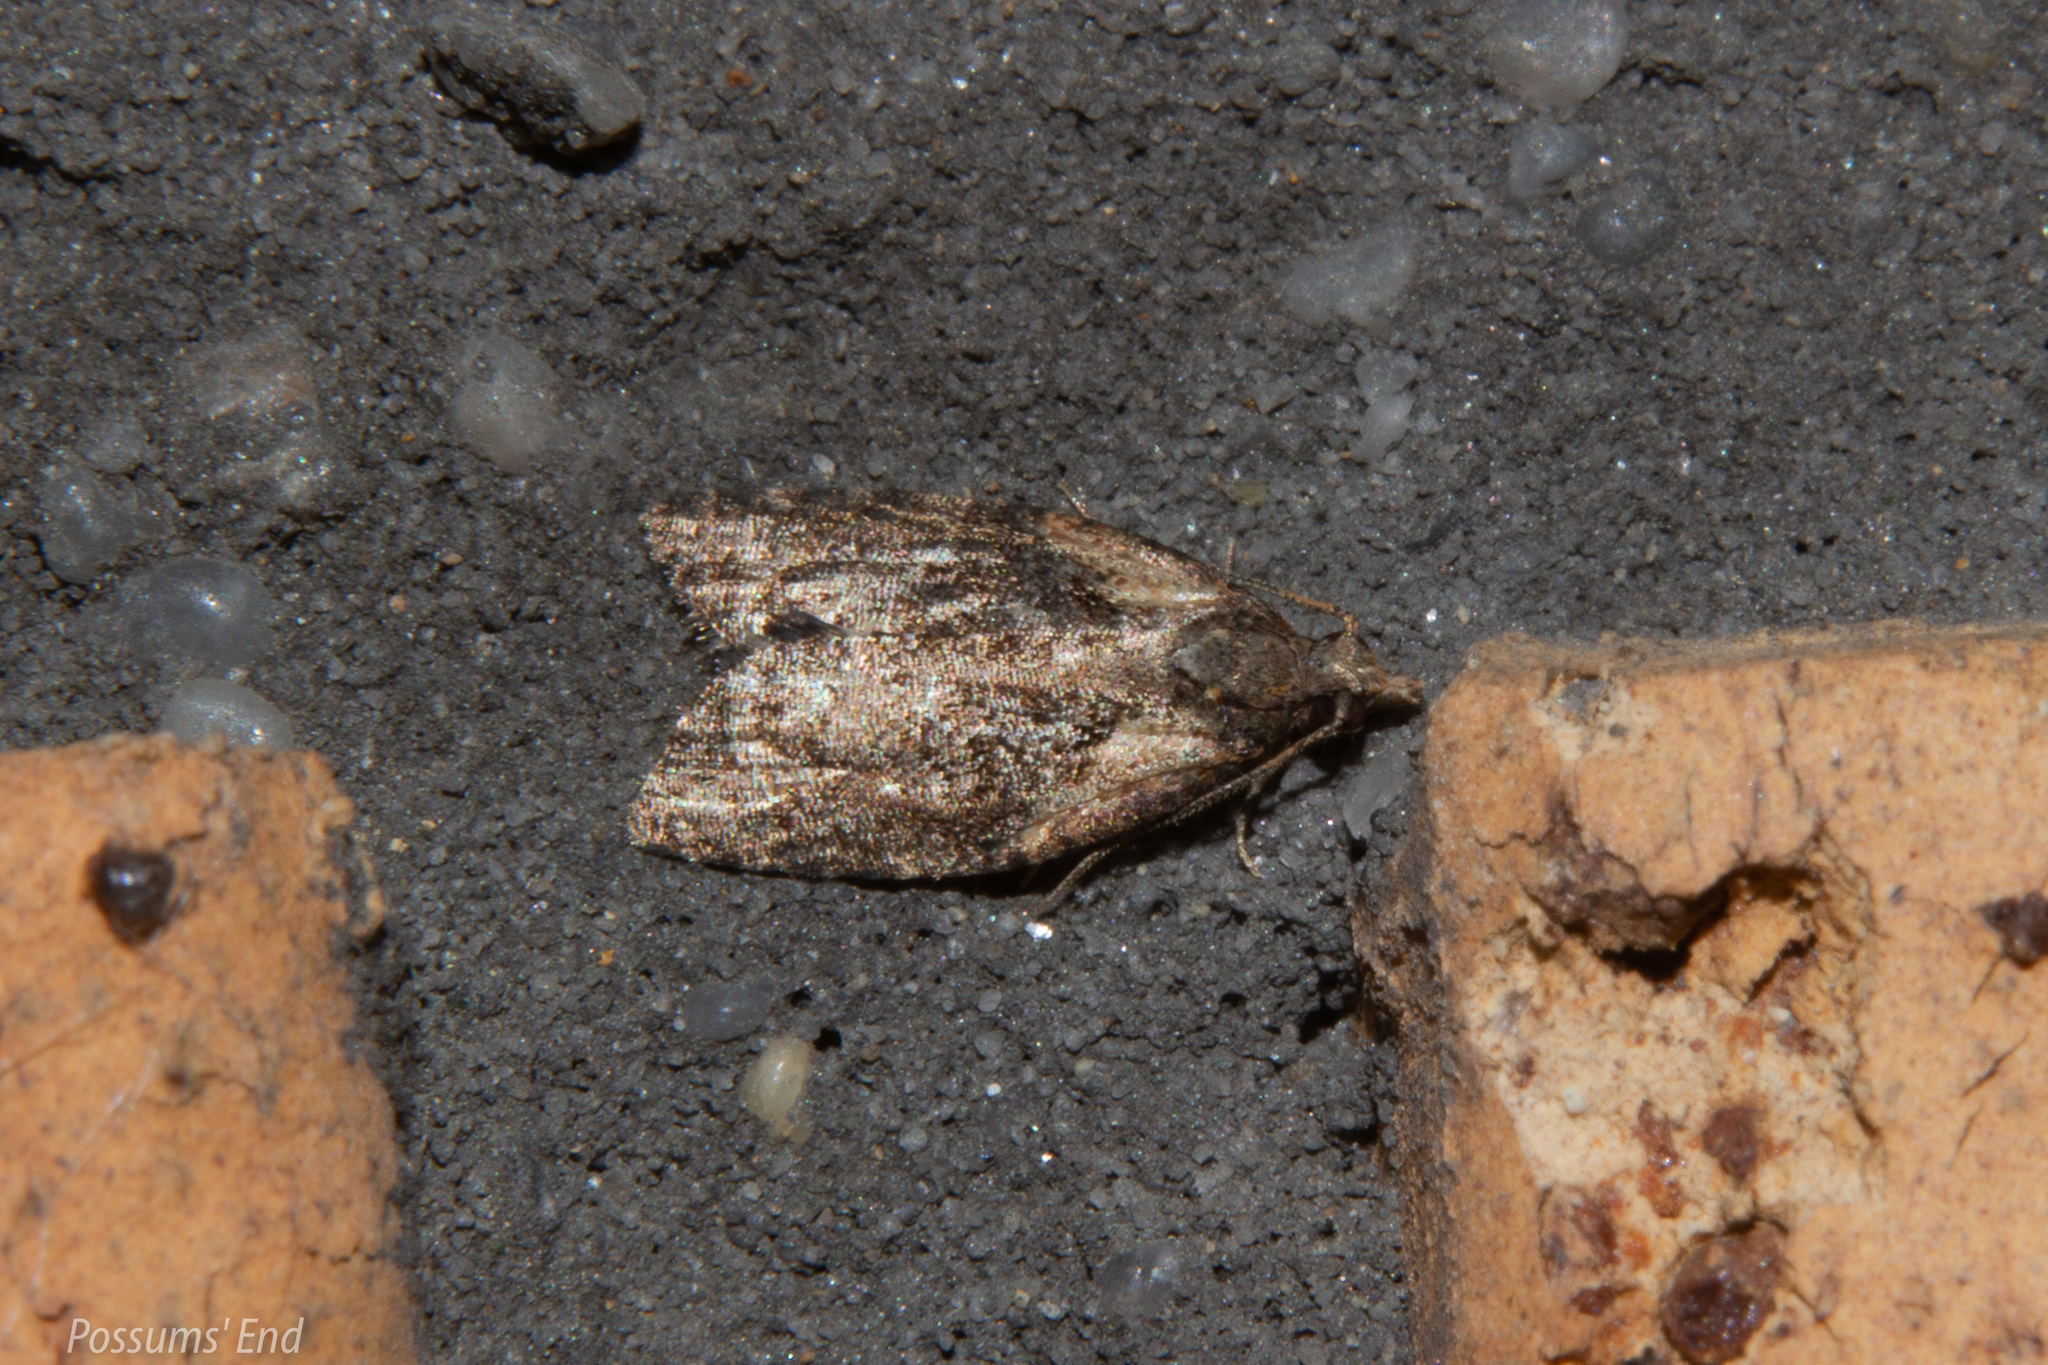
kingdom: Animalia
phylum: Arthropoda
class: Insecta
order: Lepidoptera
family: Tortricidae
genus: Capua
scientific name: Capua intractana
